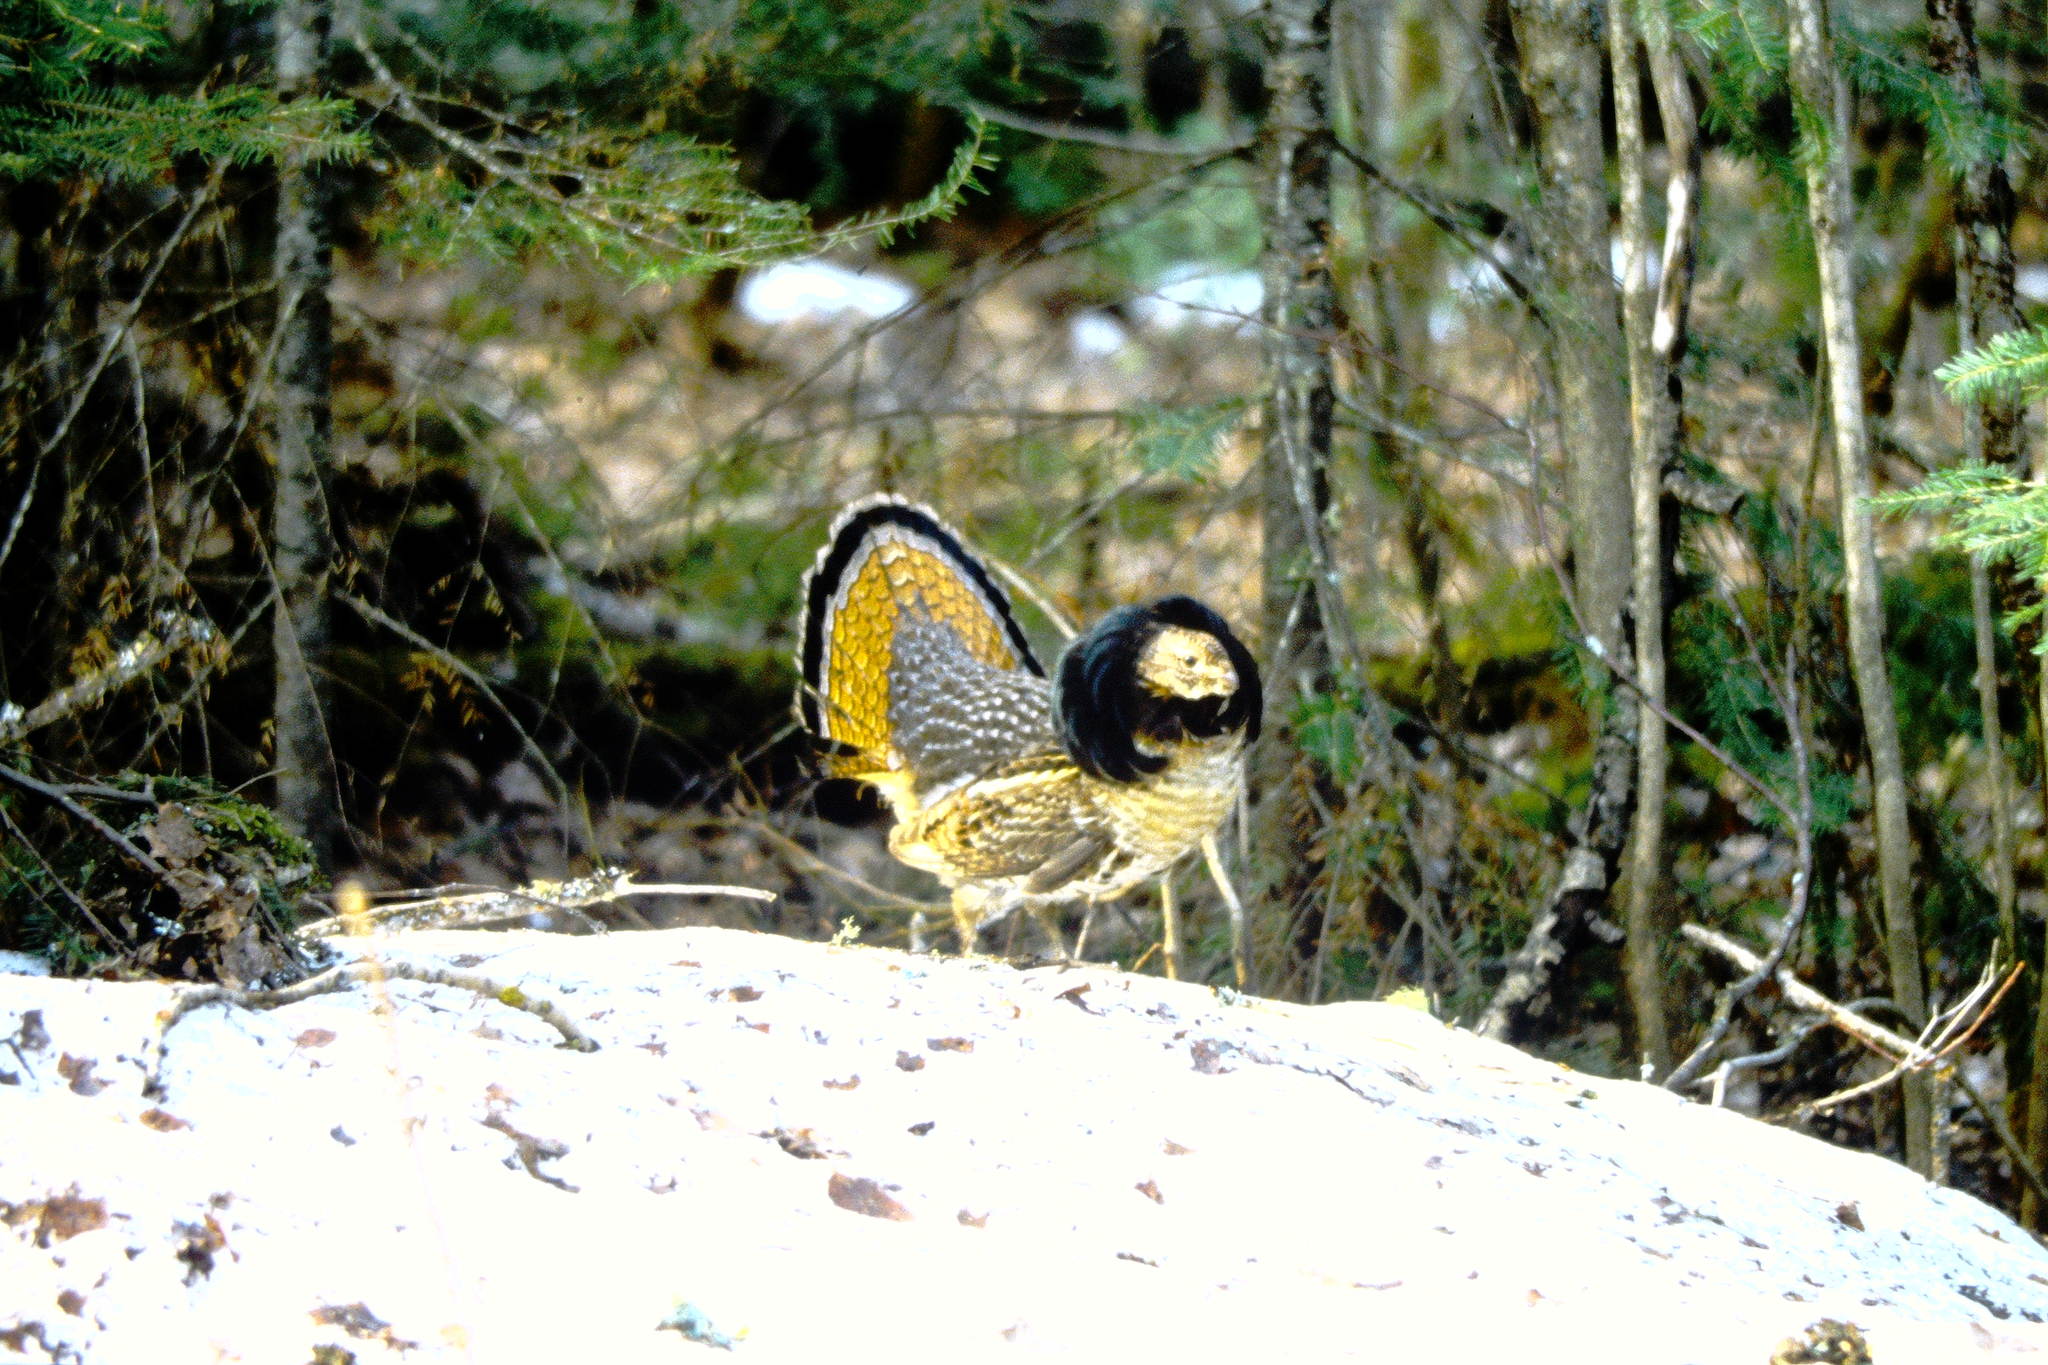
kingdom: Animalia
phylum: Chordata
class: Aves
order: Galliformes
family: Phasianidae
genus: Bonasa
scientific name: Bonasa umbellus
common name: Ruffed grouse
